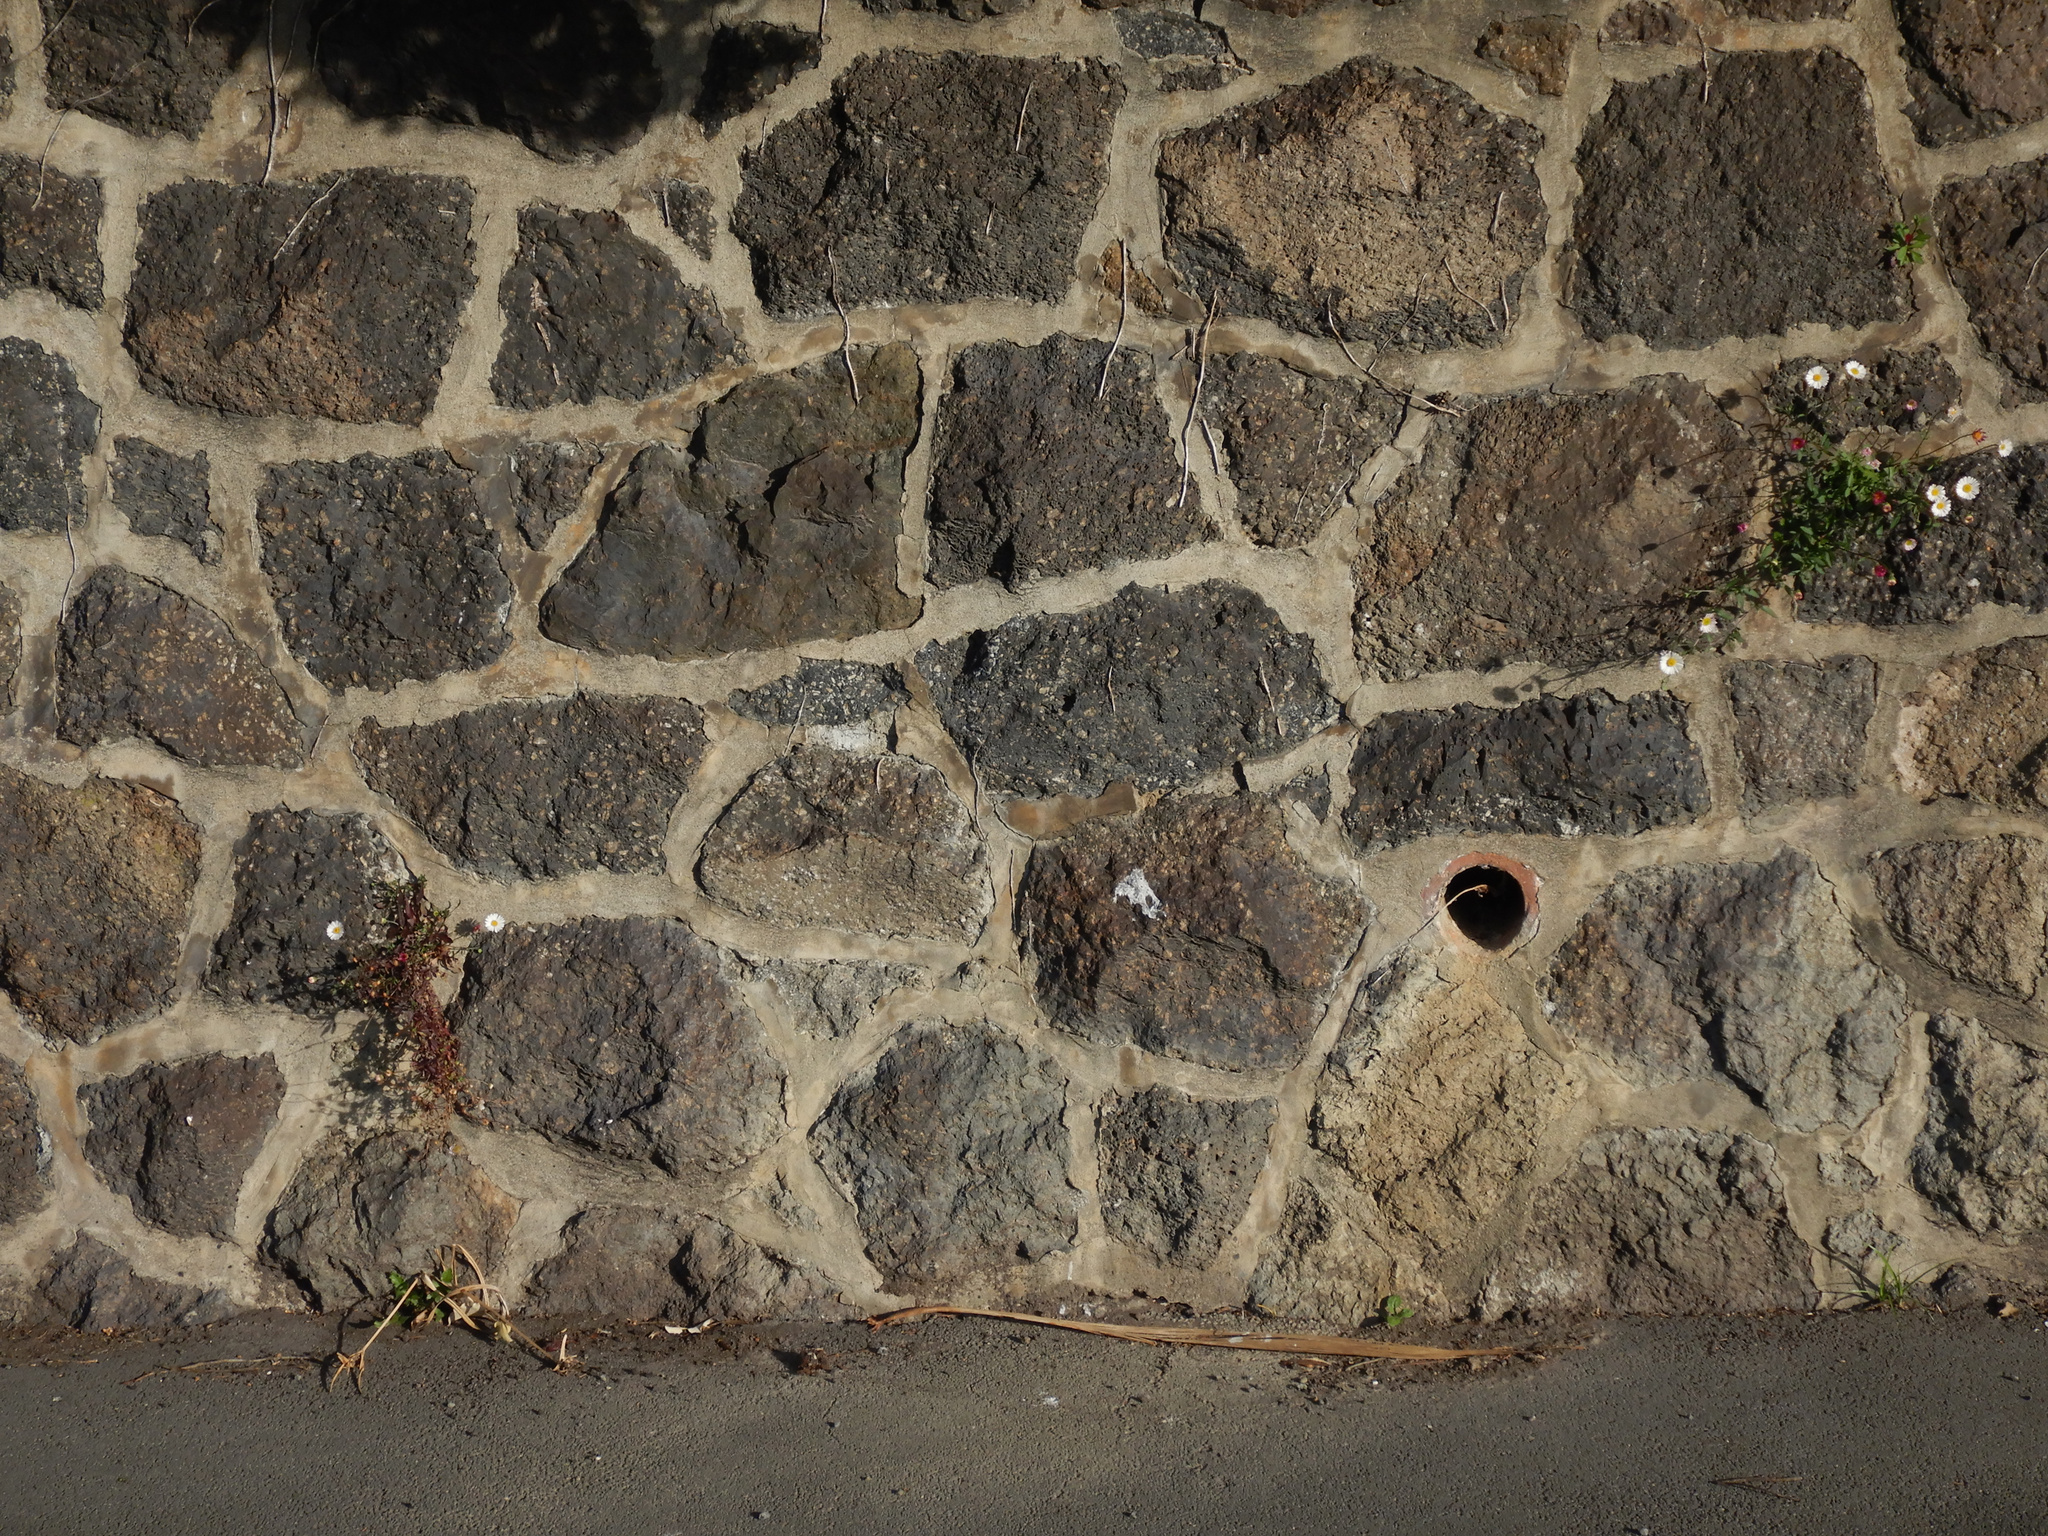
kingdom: Plantae
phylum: Tracheophyta
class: Magnoliopsida
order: Asterales
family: Asteraceae
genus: Erigeron
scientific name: Erigeron karvinskianus
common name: Mexican fleabane
